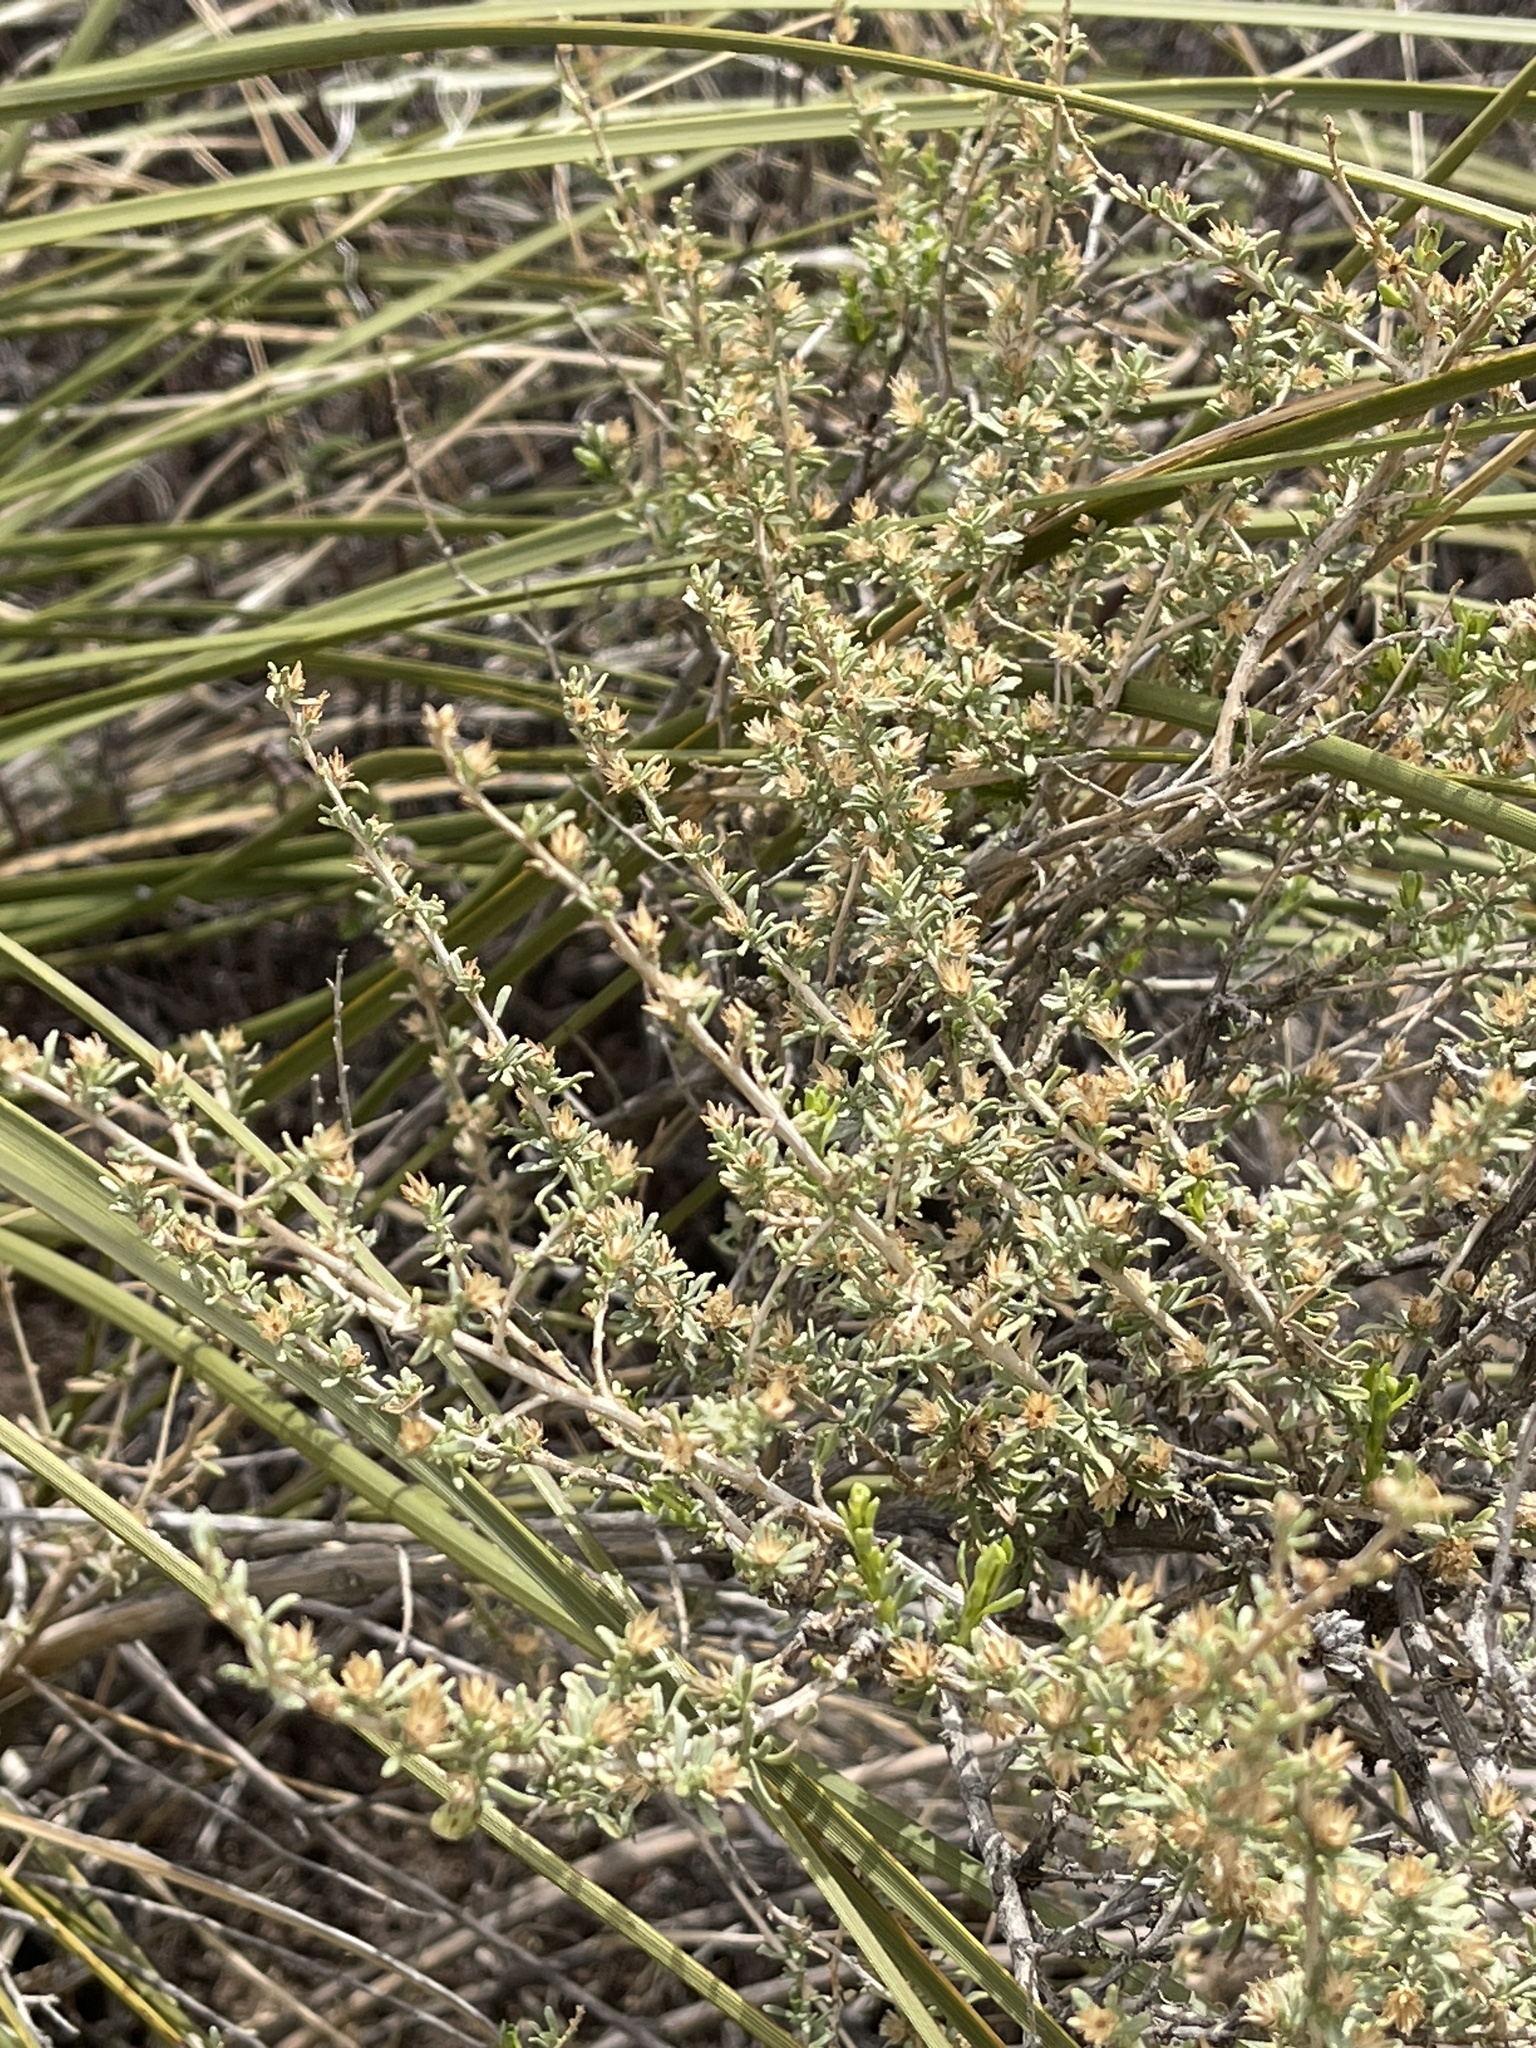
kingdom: Plantae
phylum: Tracheophyta
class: Magnoliopsida
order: Asterales
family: Asteraceae
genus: Baccharis
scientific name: Baccharis pteronioides
